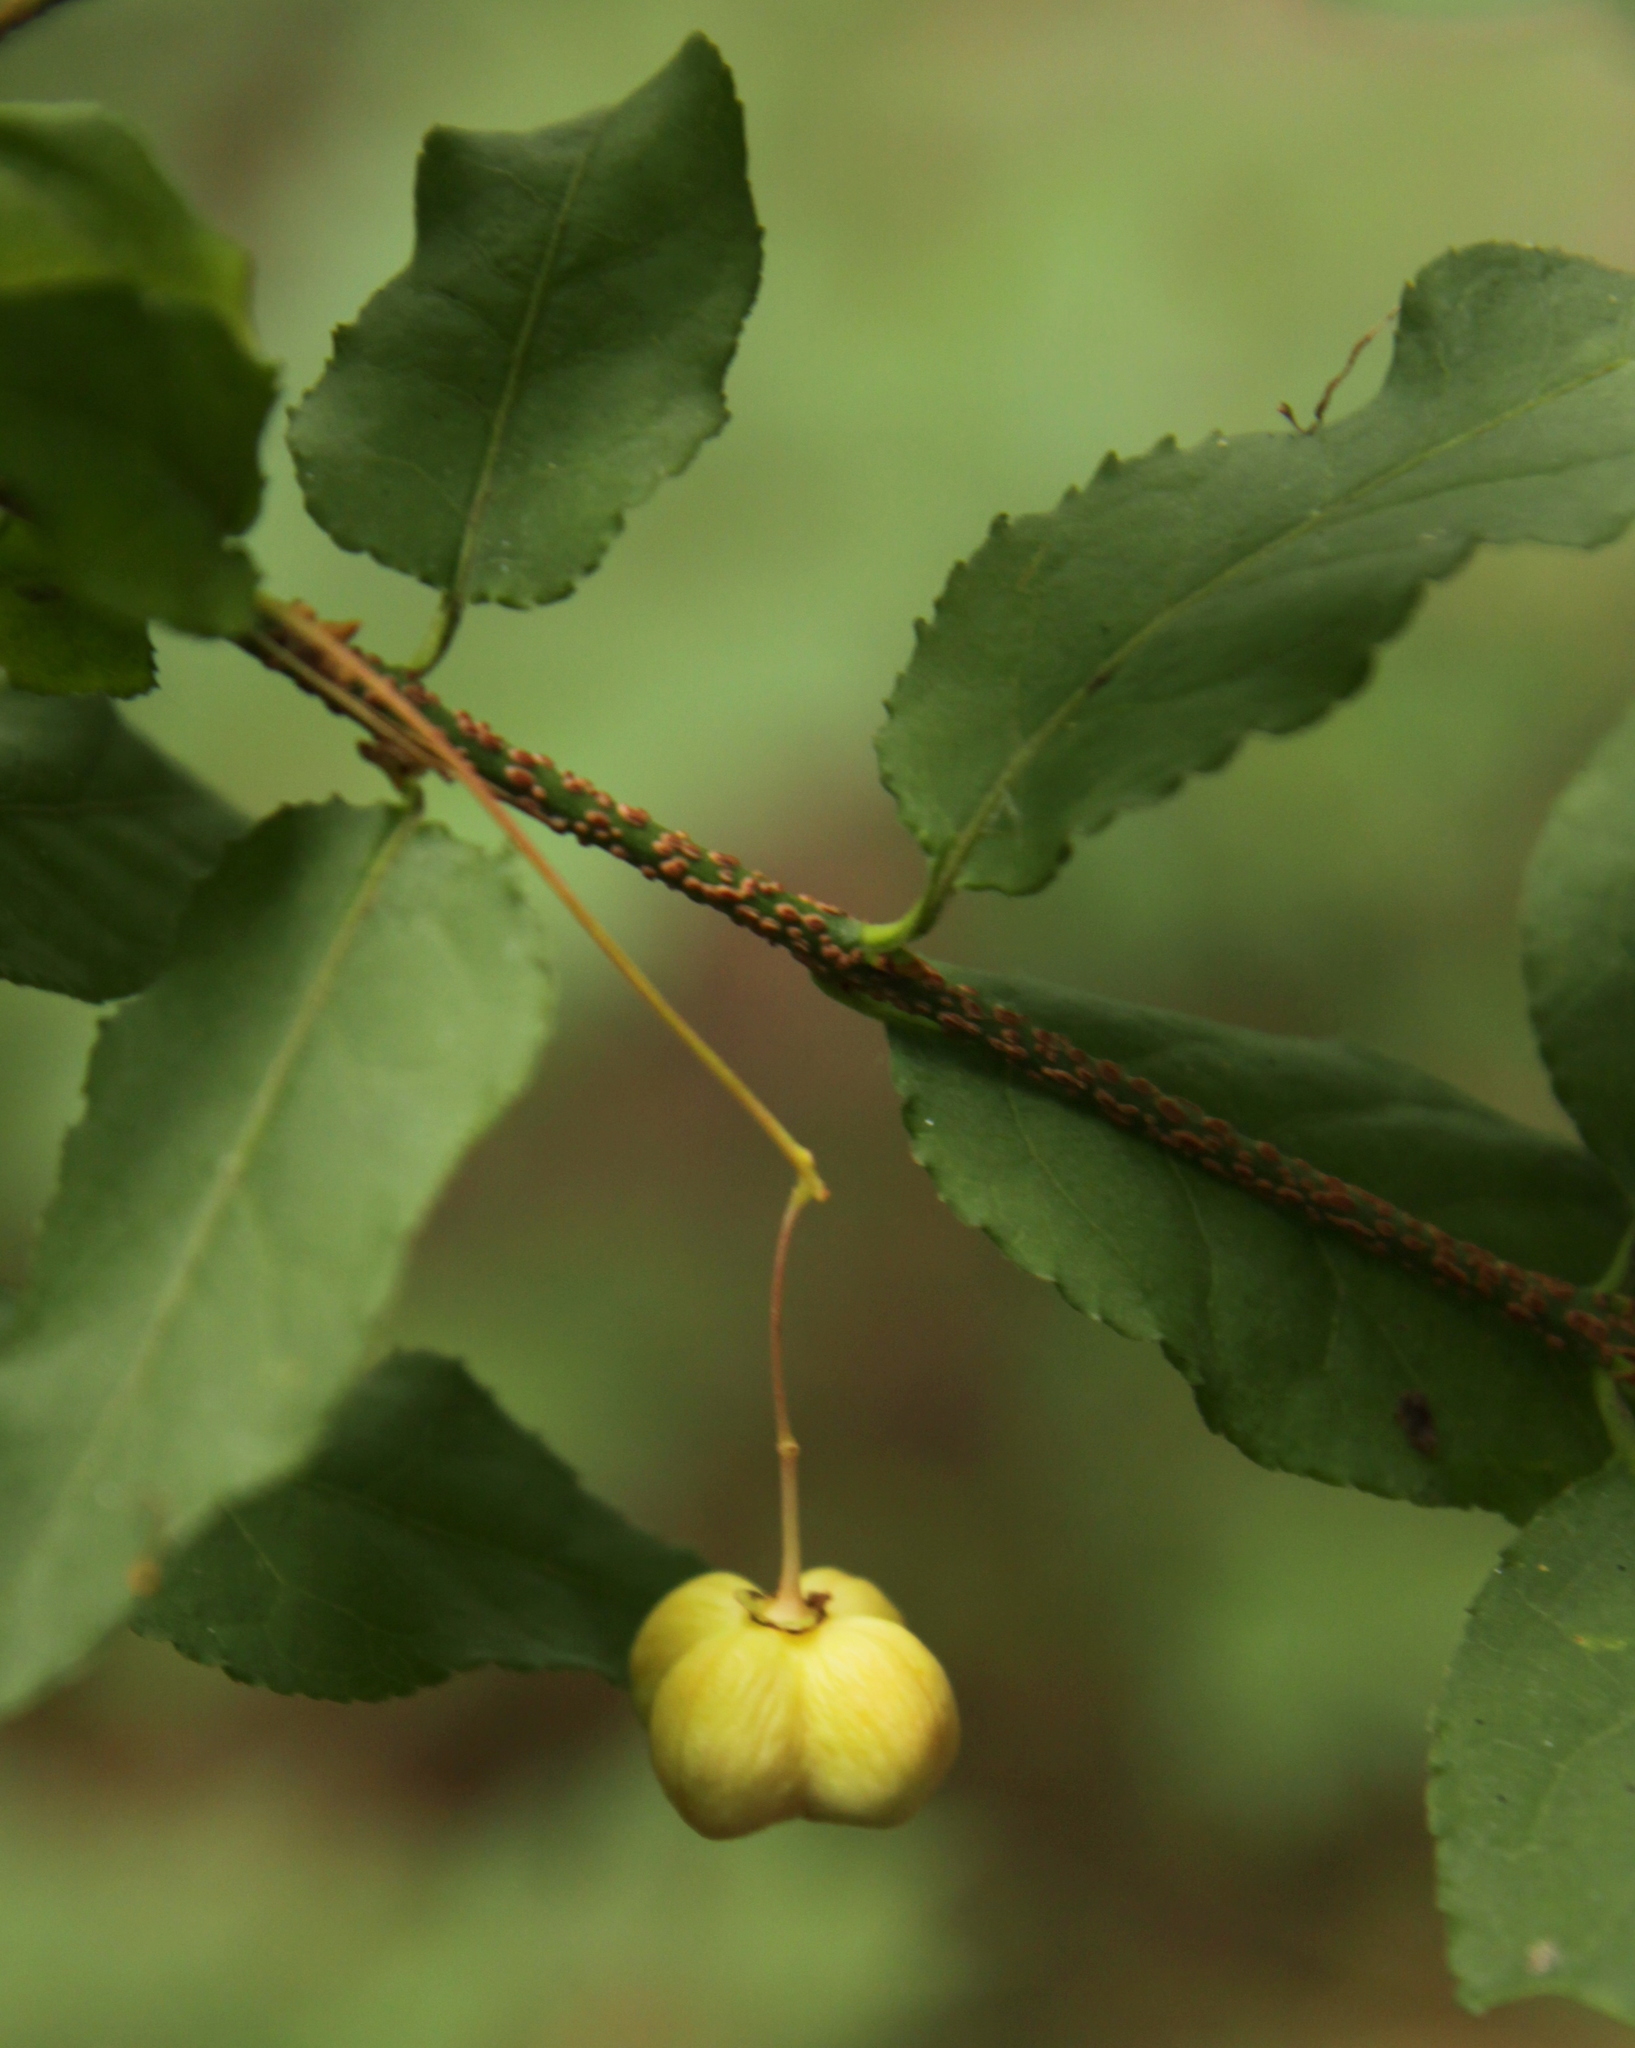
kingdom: Plantae
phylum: Tracheophyta
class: Magnoliopsida
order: Celastrales
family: Celastraceae
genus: Euonymus
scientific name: Euonymus verrucosus
